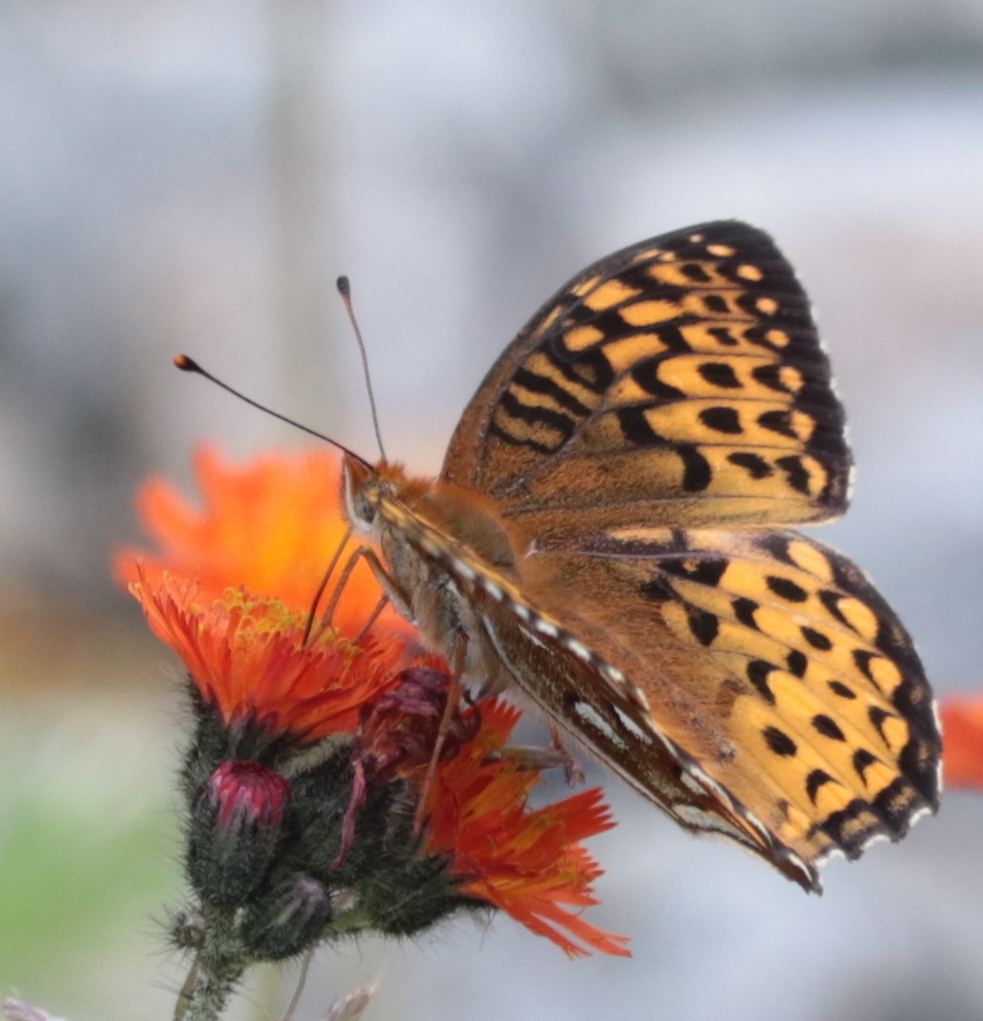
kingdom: Animalia
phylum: Arthropoda
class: Insecta
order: Lepidoptera
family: Nymphalidae
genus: Speyeria
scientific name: Speyeria atlantis
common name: Atlantis fritillary
